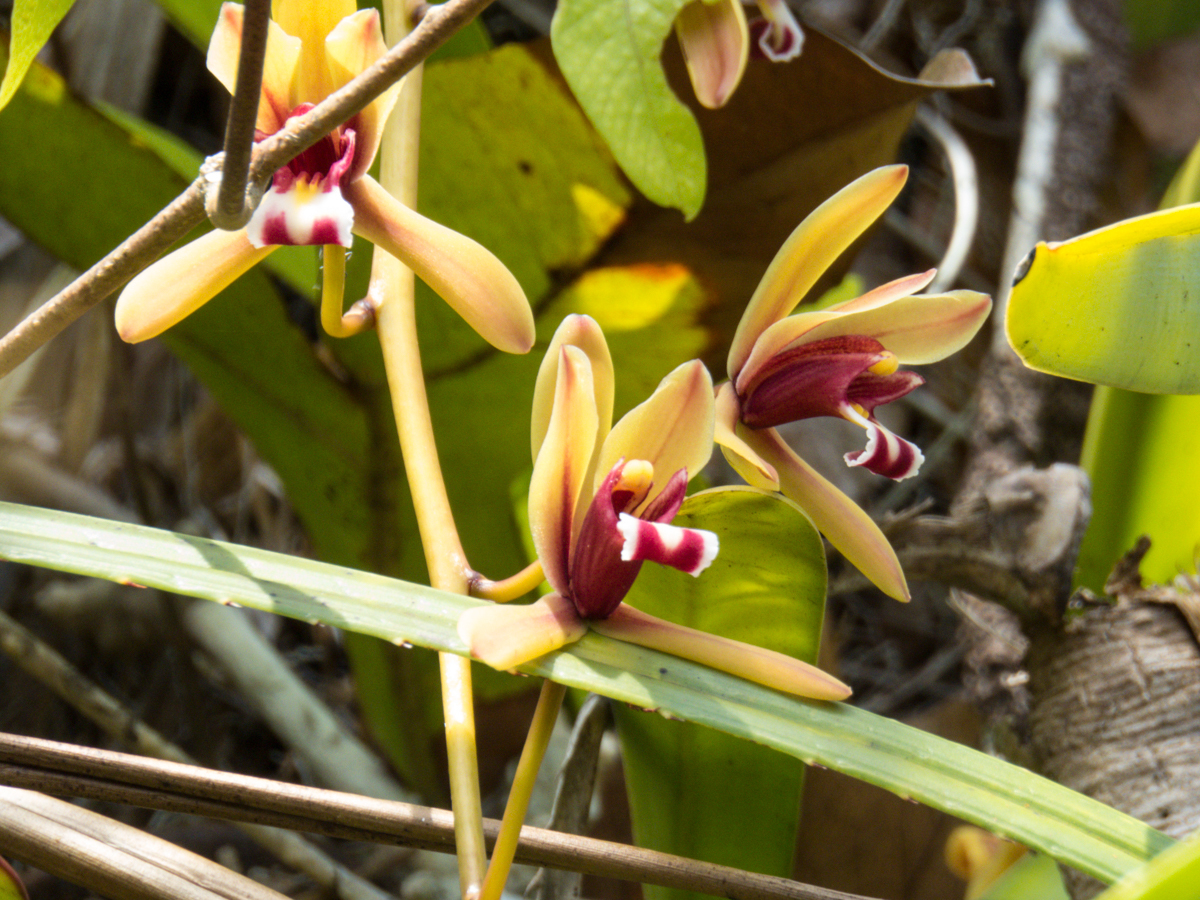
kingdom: Plantae
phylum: Tracheophyta
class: Liliopsida
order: Asparagales
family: Orchidaceae
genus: Cymbidium
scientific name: Cymbidium finlaysonianum
